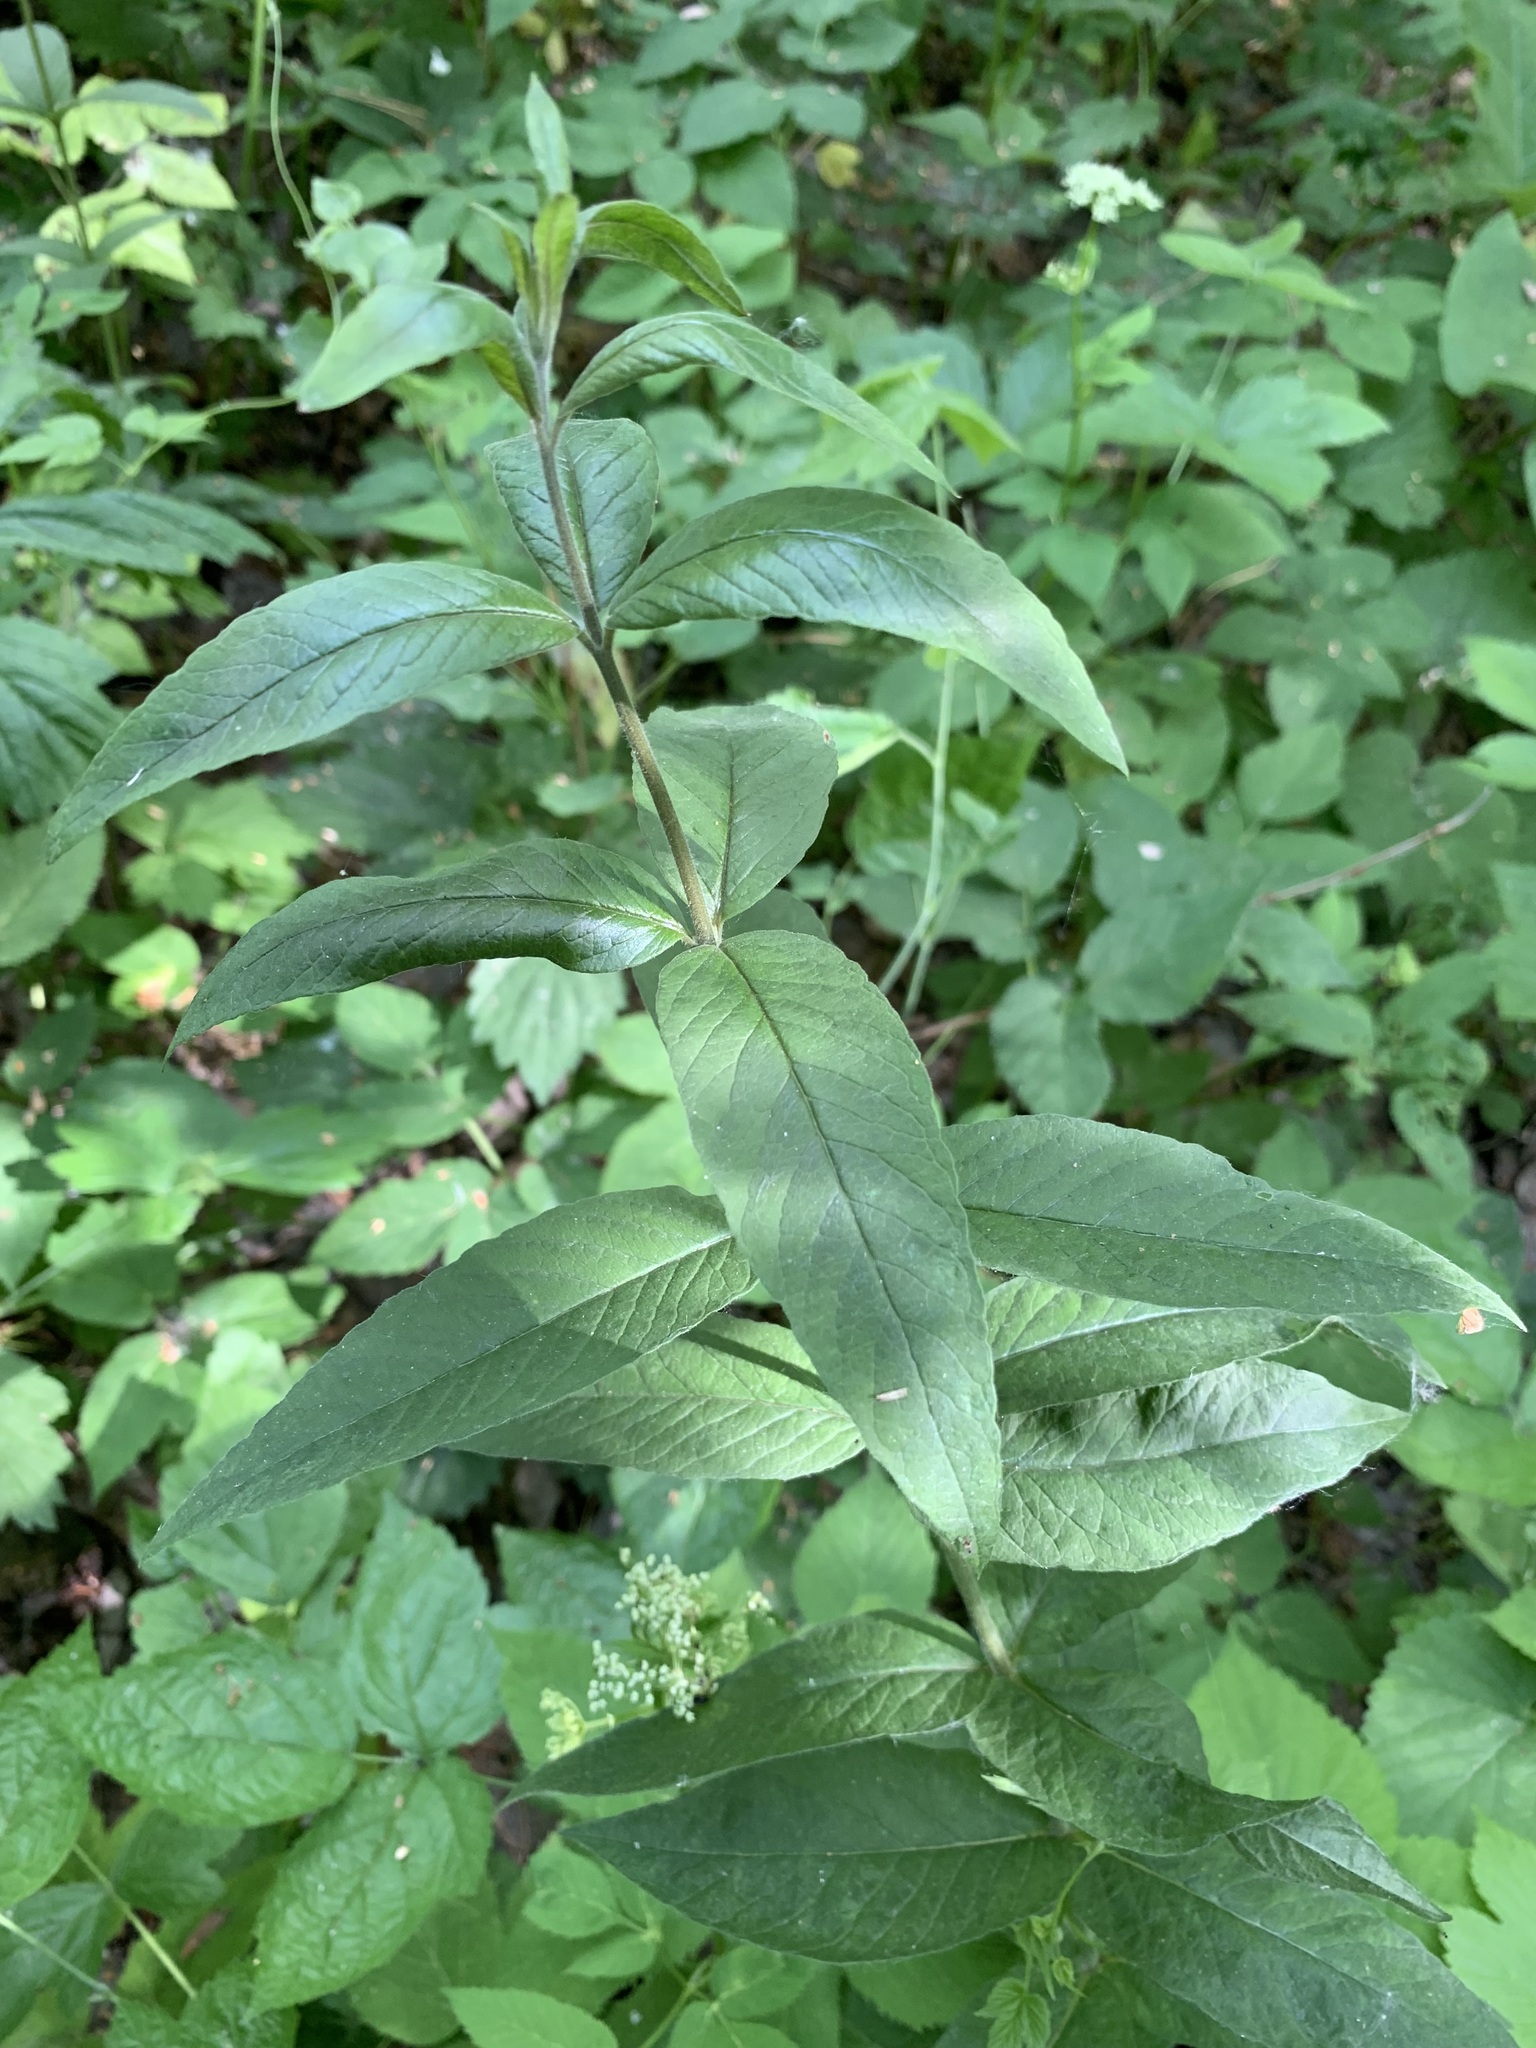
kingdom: Plantae
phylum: Tracheophyta
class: Magnoliopsida
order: Ericales
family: Primulaceae
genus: Lysimachia
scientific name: Lysimachia vulgaris
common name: Yellow loosestrife
